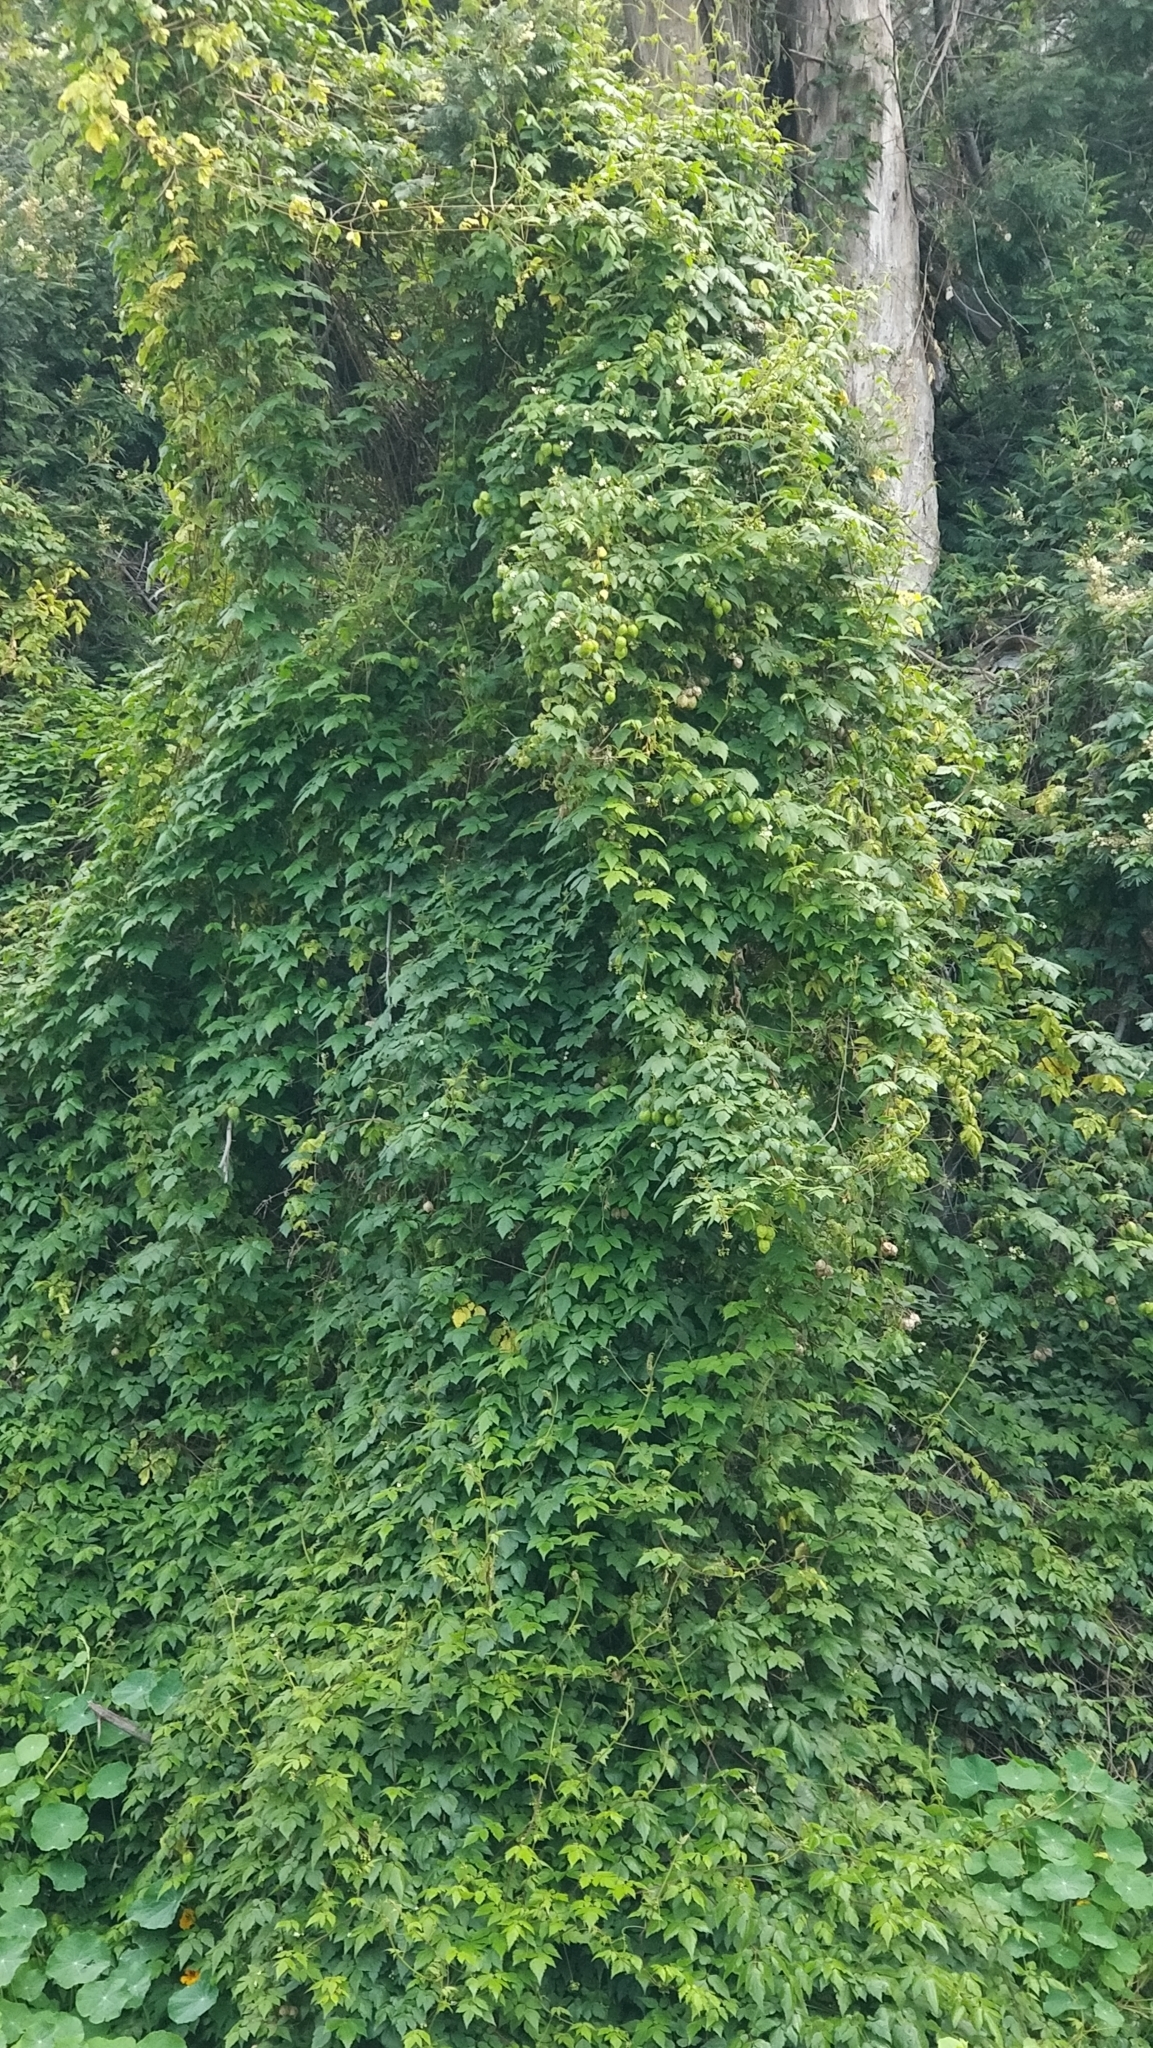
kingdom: Plantae
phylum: Tracheophyta
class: Magnoliopsida
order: Sapindales
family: Sapindaceae
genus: Cardiospermum
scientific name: Cardiospermum grandiflorum
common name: Balloon vine
